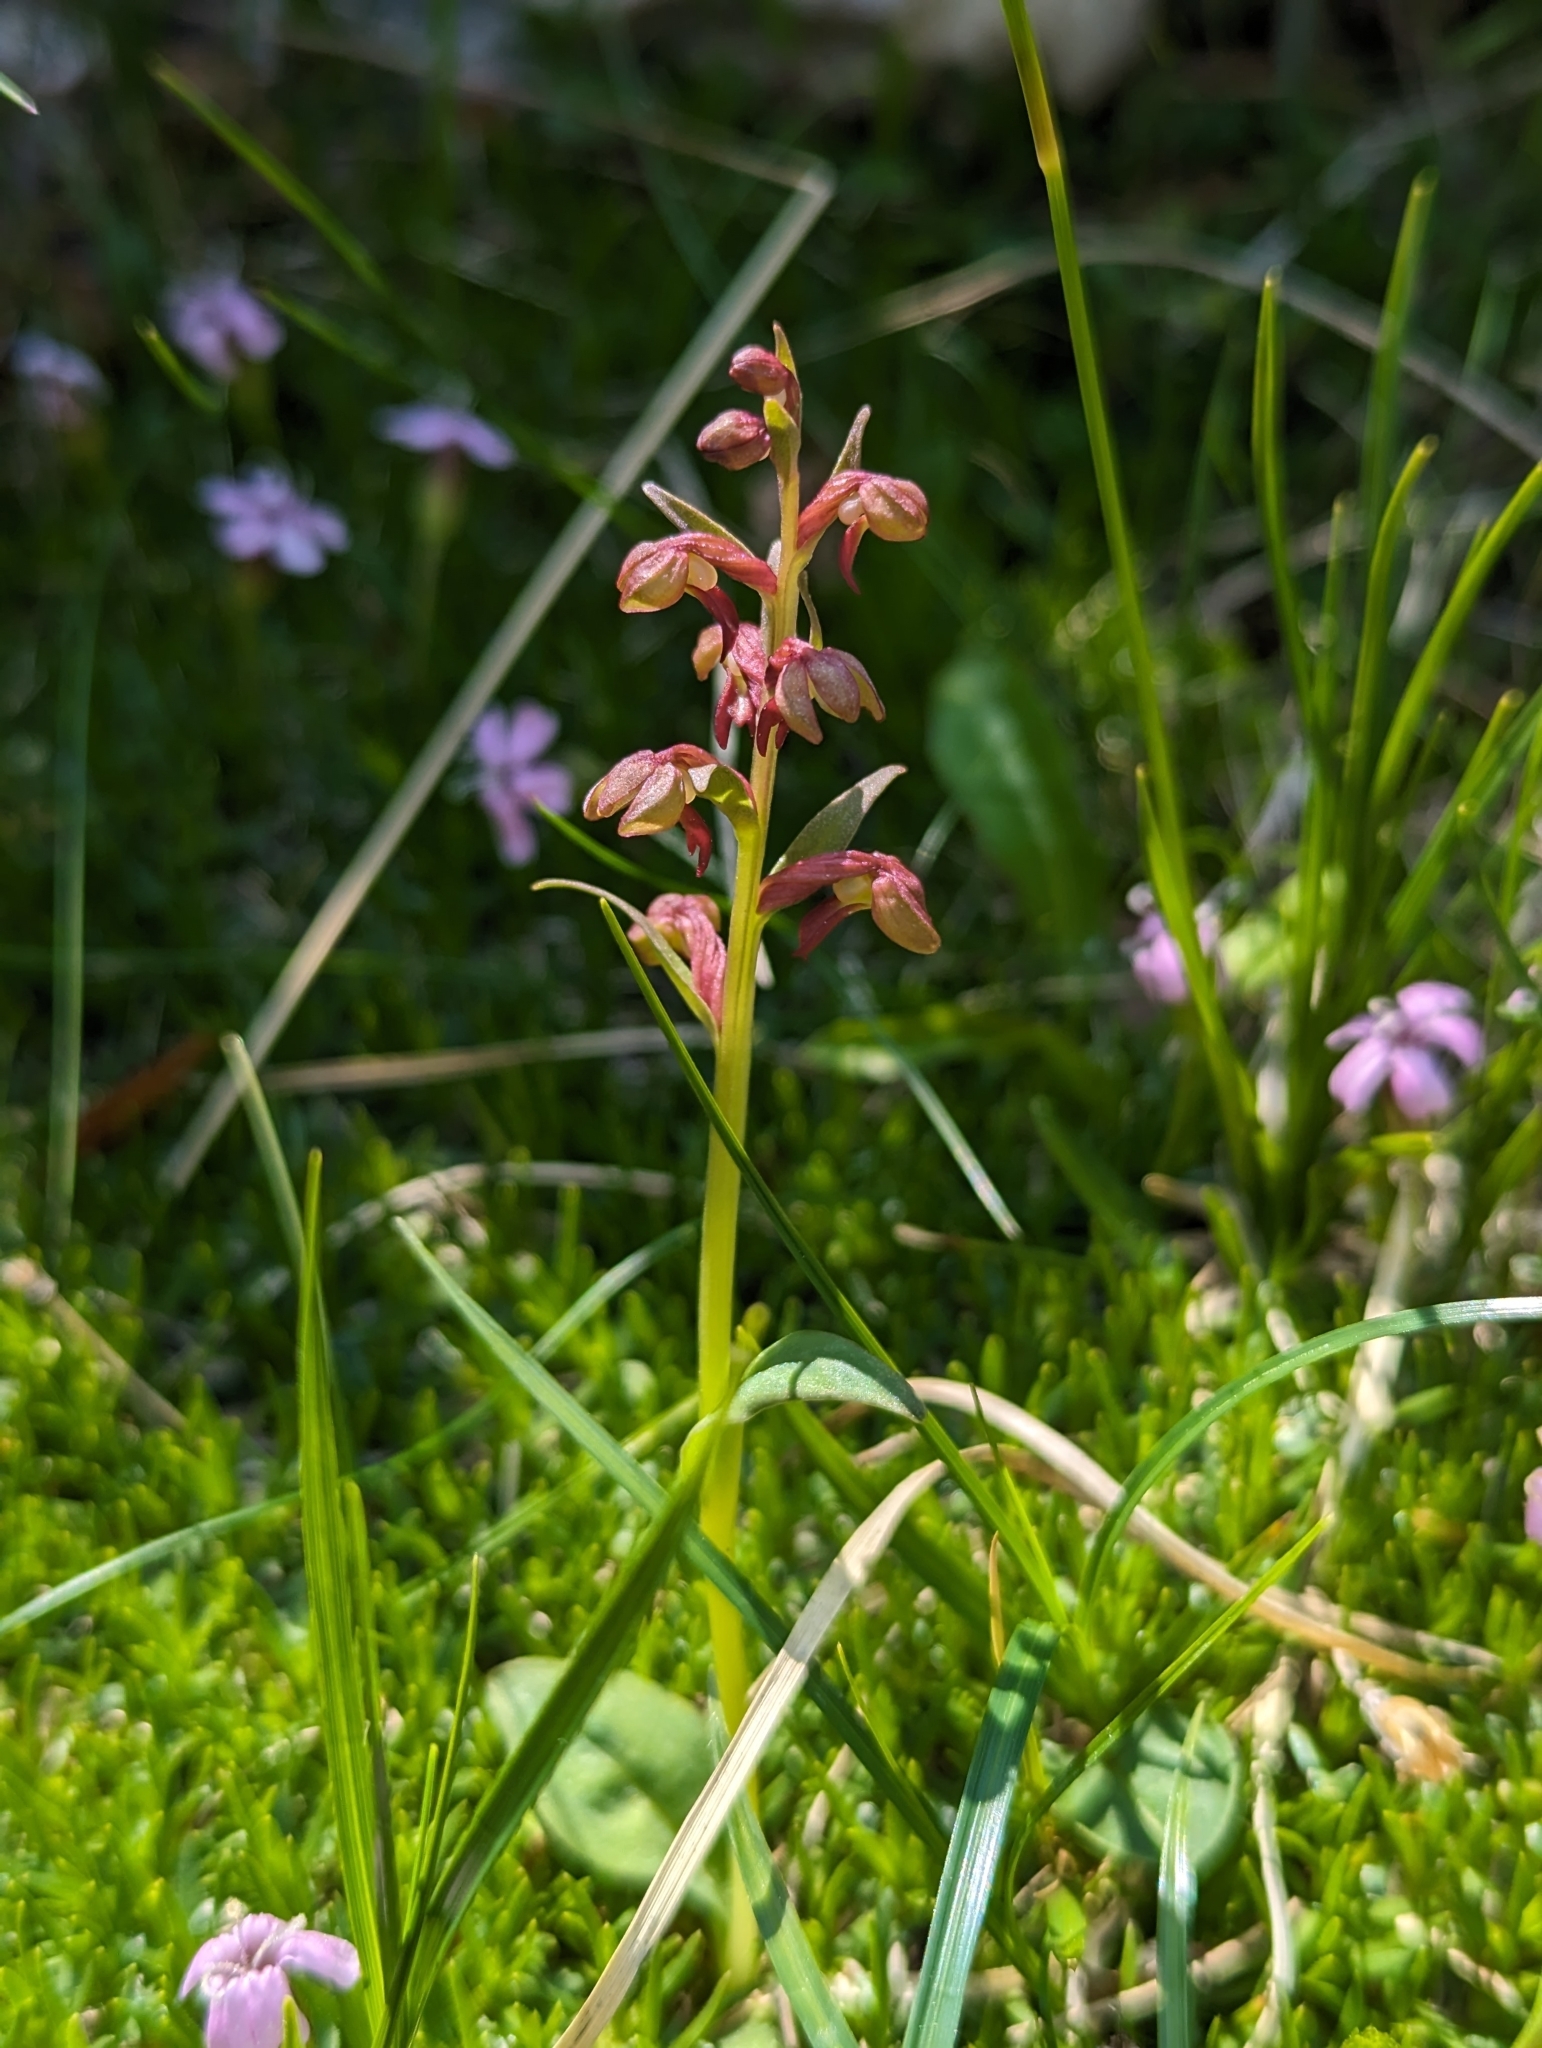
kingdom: Plantae
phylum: Tracheophyta
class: Liliopsida
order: Asparagales
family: Orchidaceae
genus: Dactylorhiza
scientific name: Dactylorhiza viridis
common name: Longbract frog orchid
